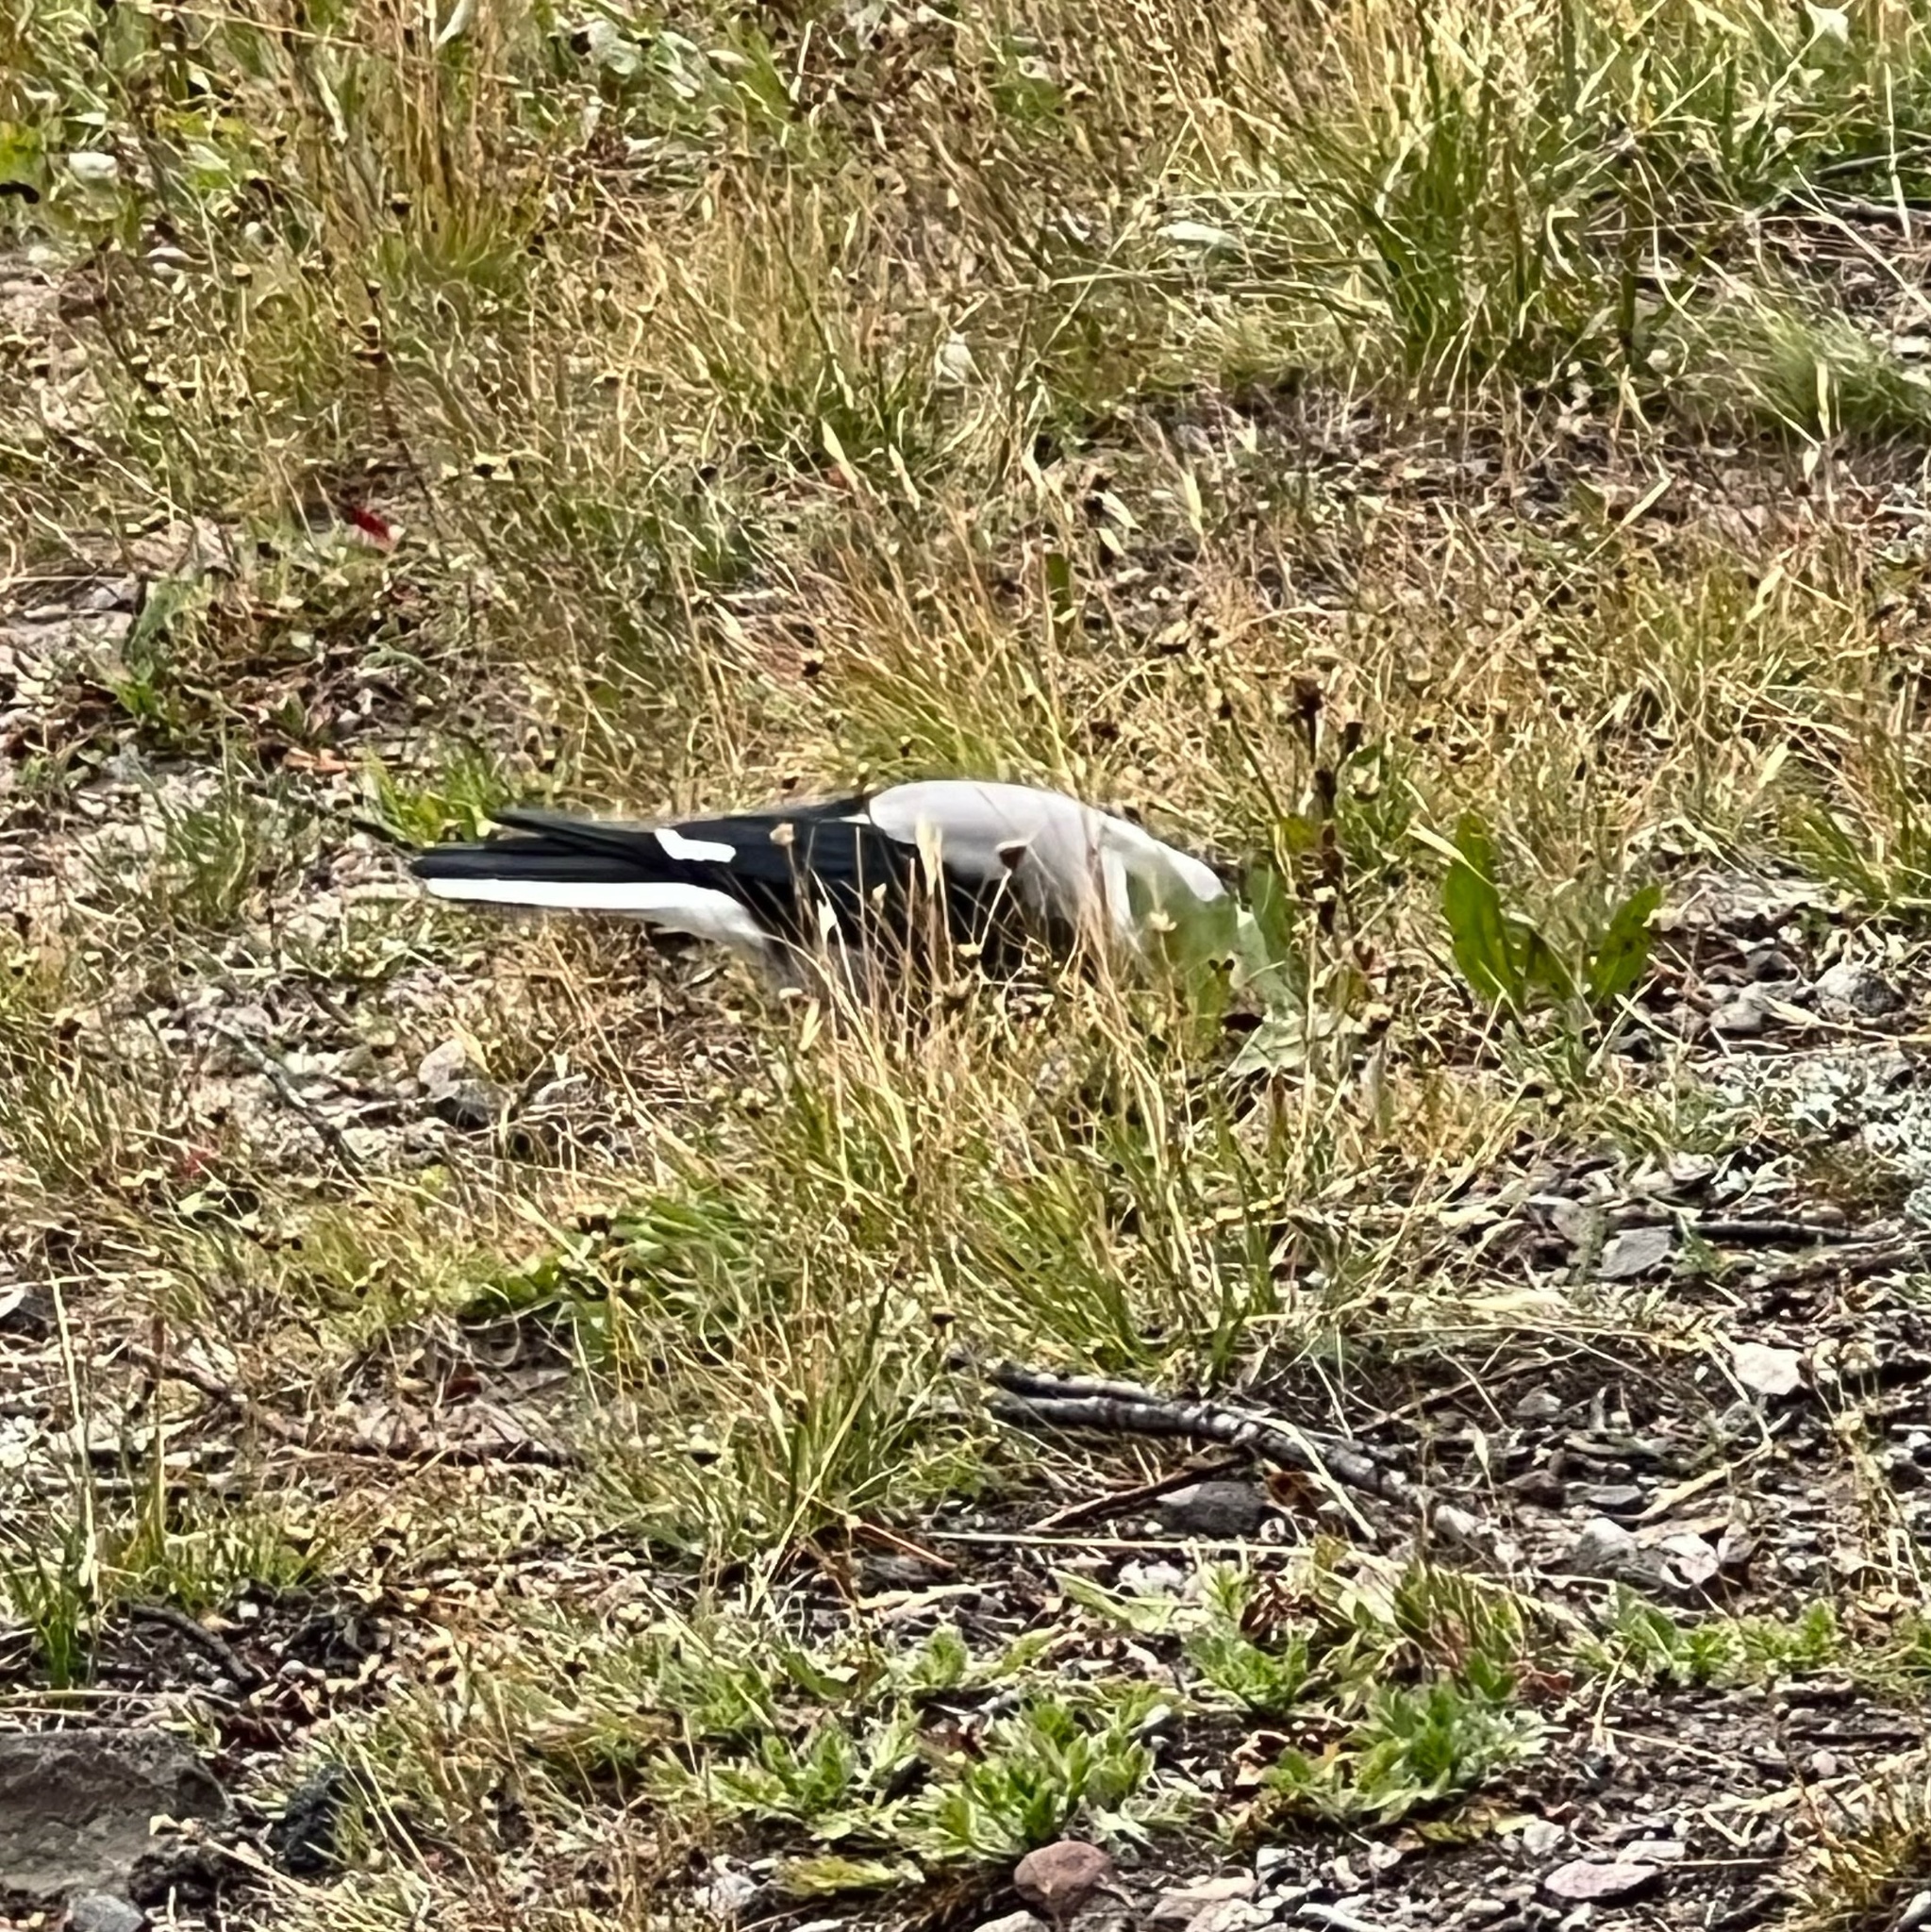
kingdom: Animalia
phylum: Chordata
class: Aves
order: Passeriformes
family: Corvidae
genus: Nucifraga
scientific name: Nucifraga columbiana
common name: Clark's nutcracker
